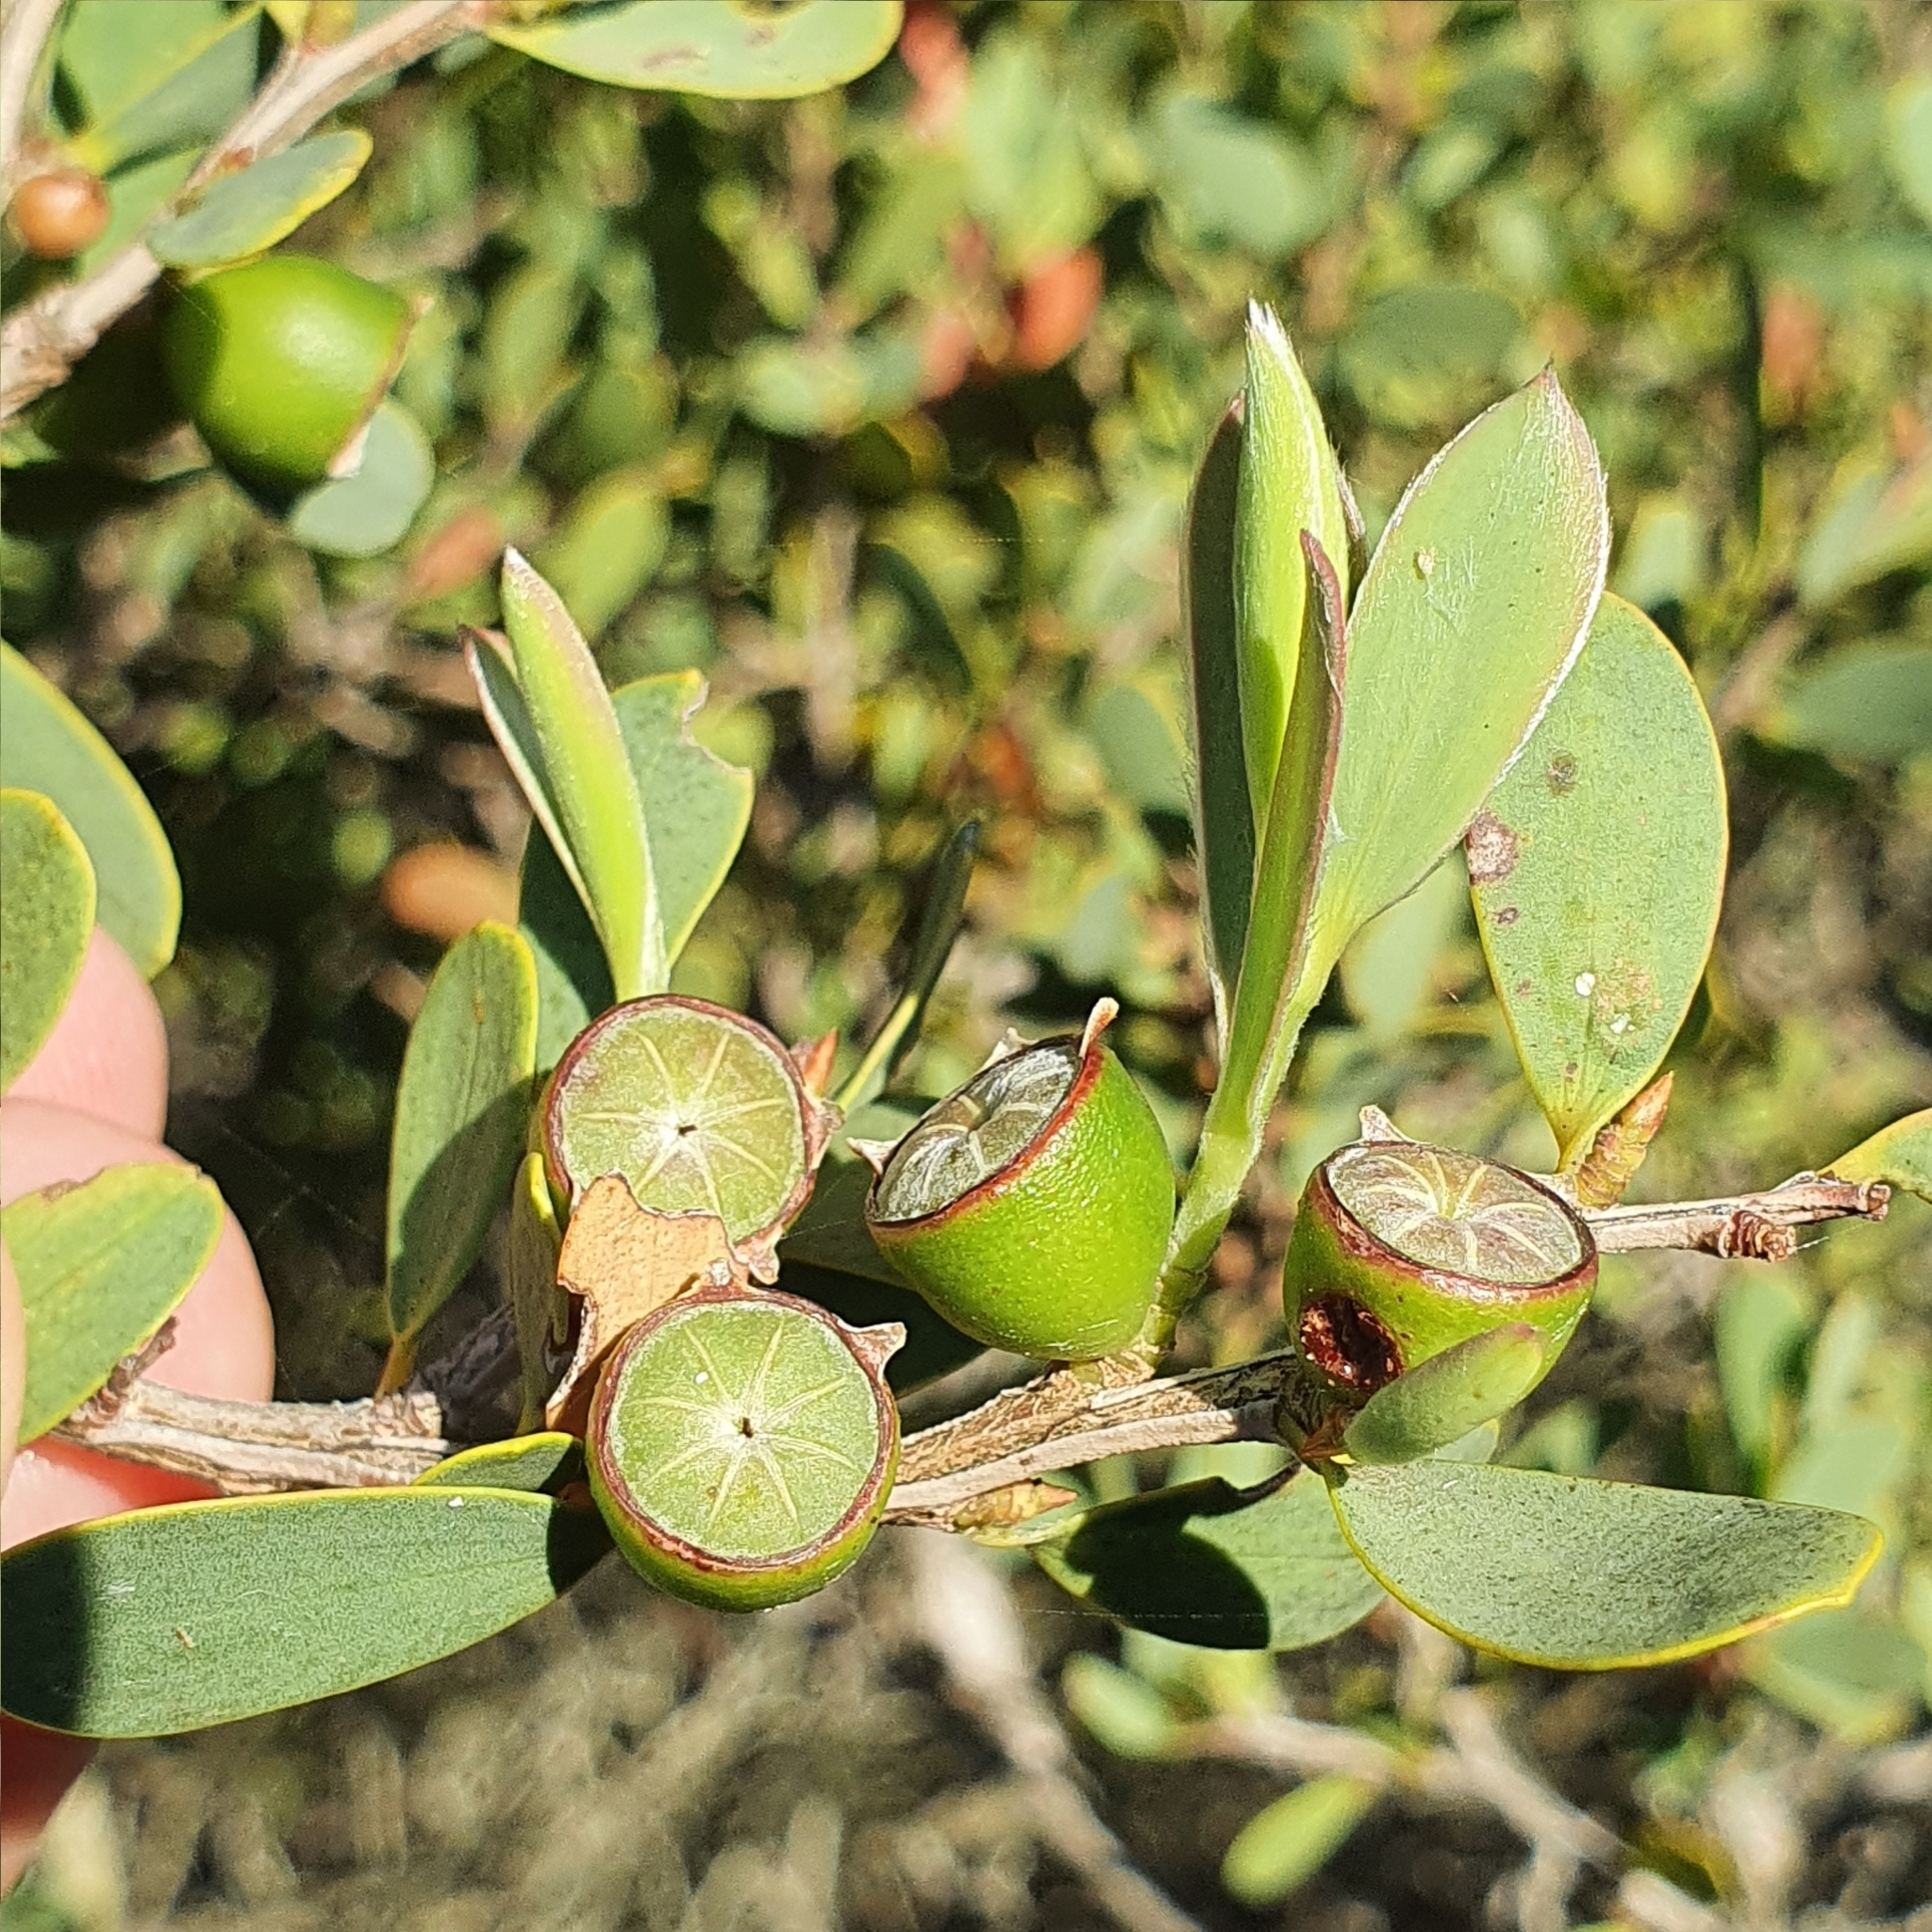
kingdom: Plantae
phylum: Tracheophyta
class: Magnoliopsida
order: Myrtales
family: Myrtaceae
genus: Leptospermum
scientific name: Leptospermum laevigatum
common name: Australian teatree
